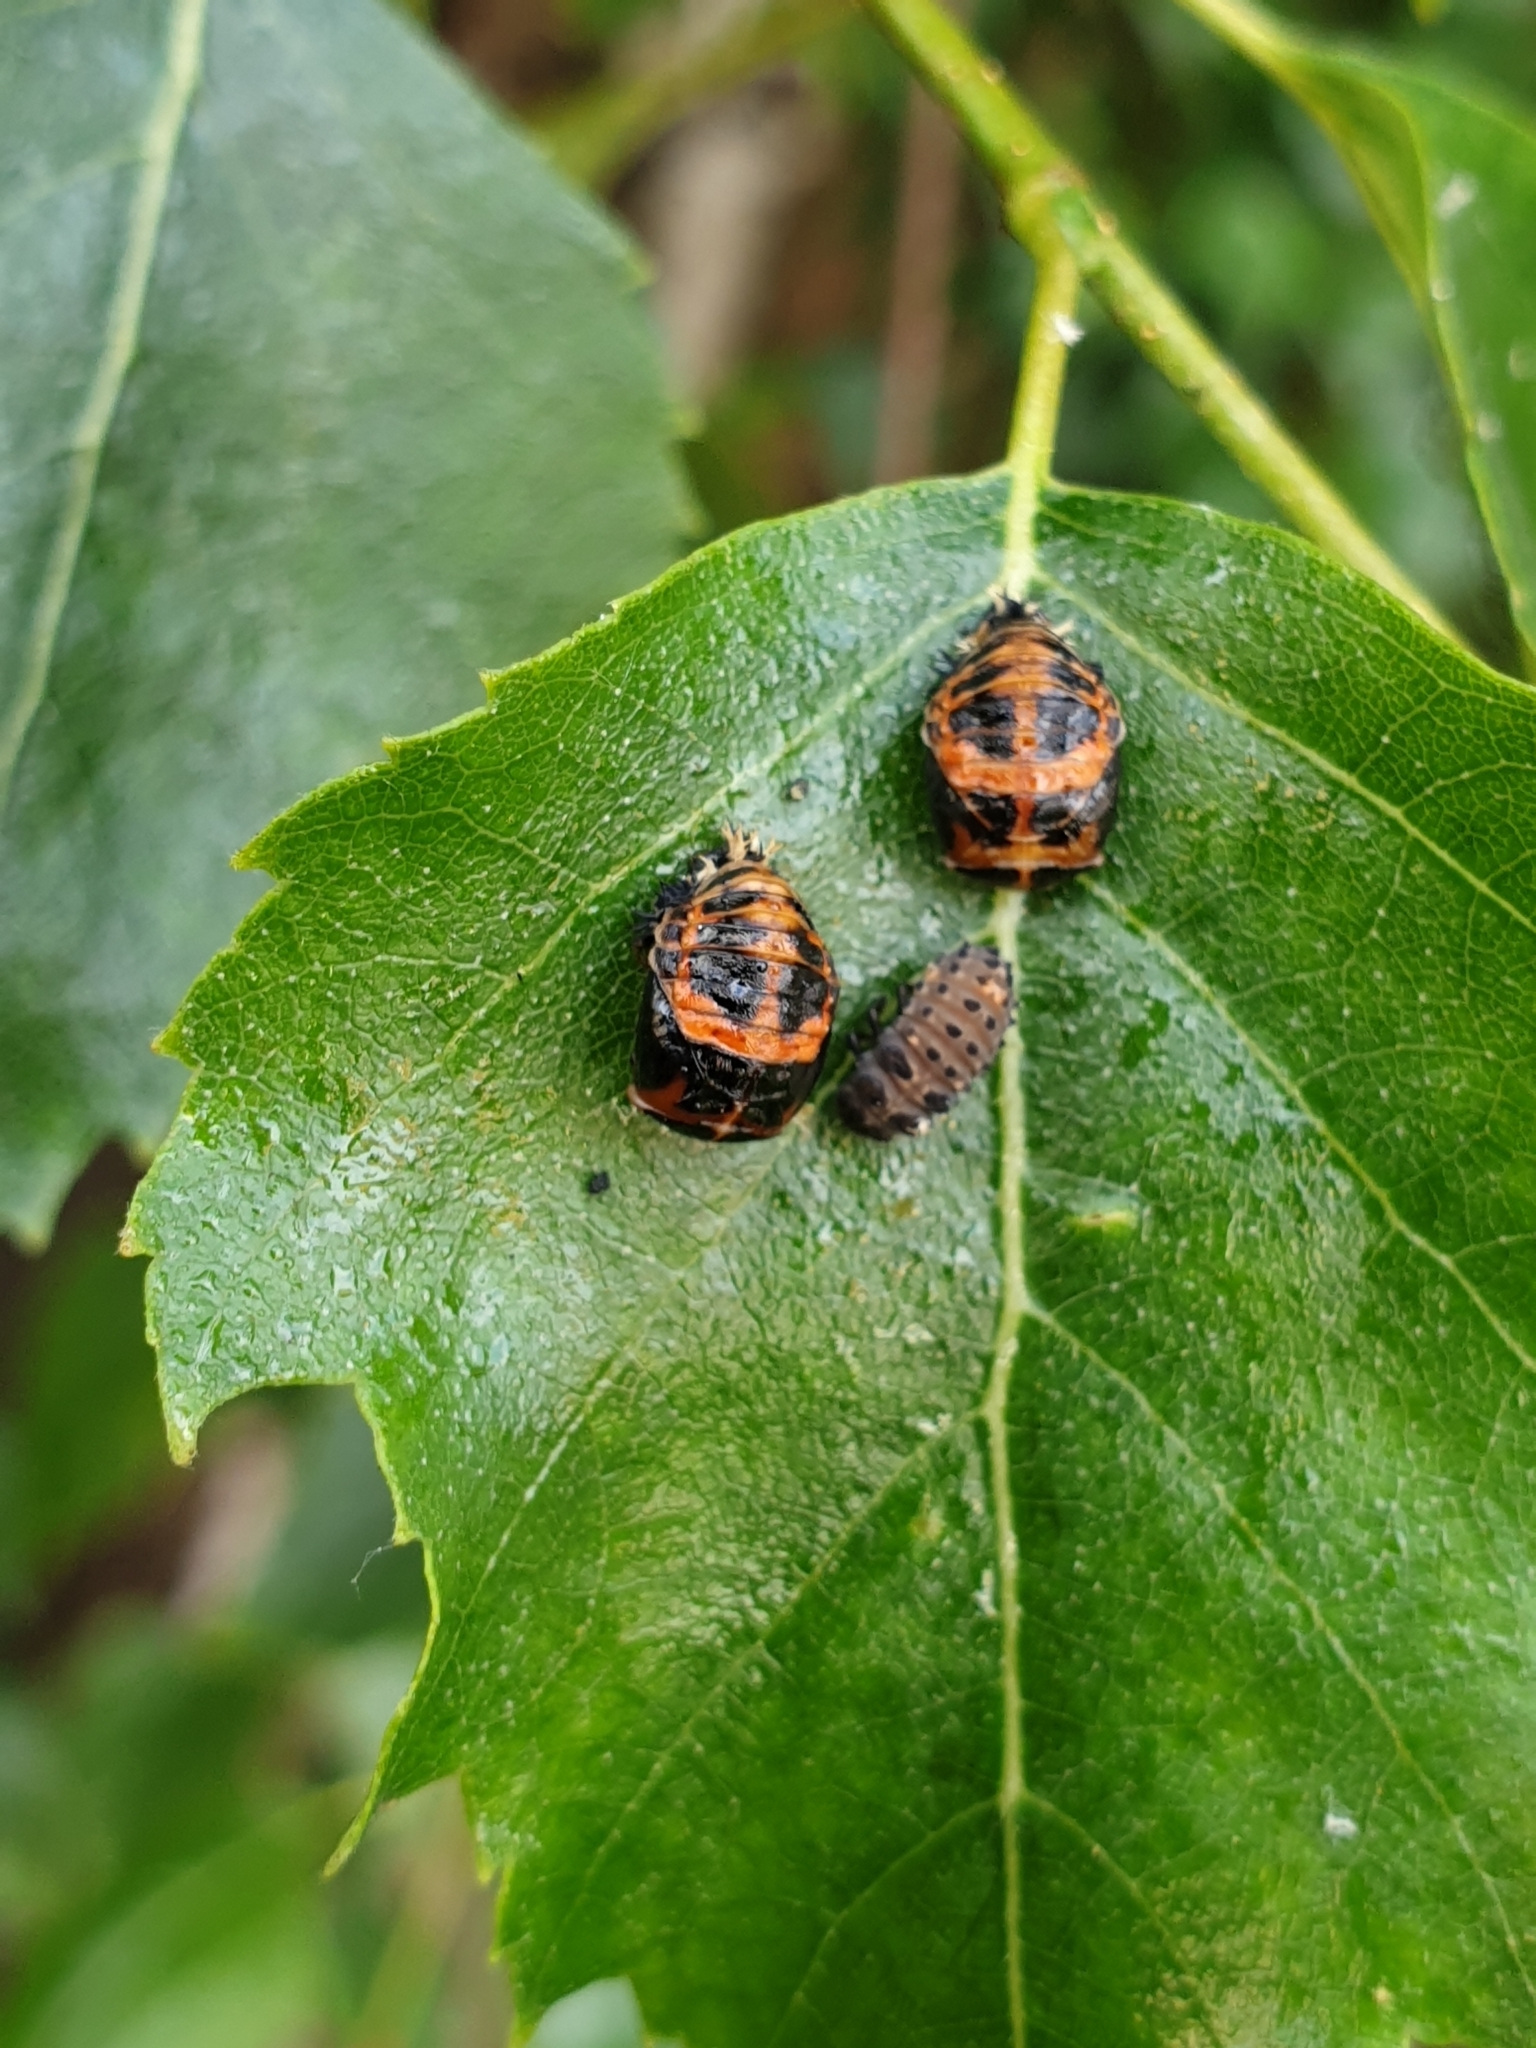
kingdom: Animalia
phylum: Arthropoda
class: Insecta
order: Coleoptera
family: Coccinellidae
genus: Harmonia
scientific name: Harmonia axyridis
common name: Harlequin ladybird
